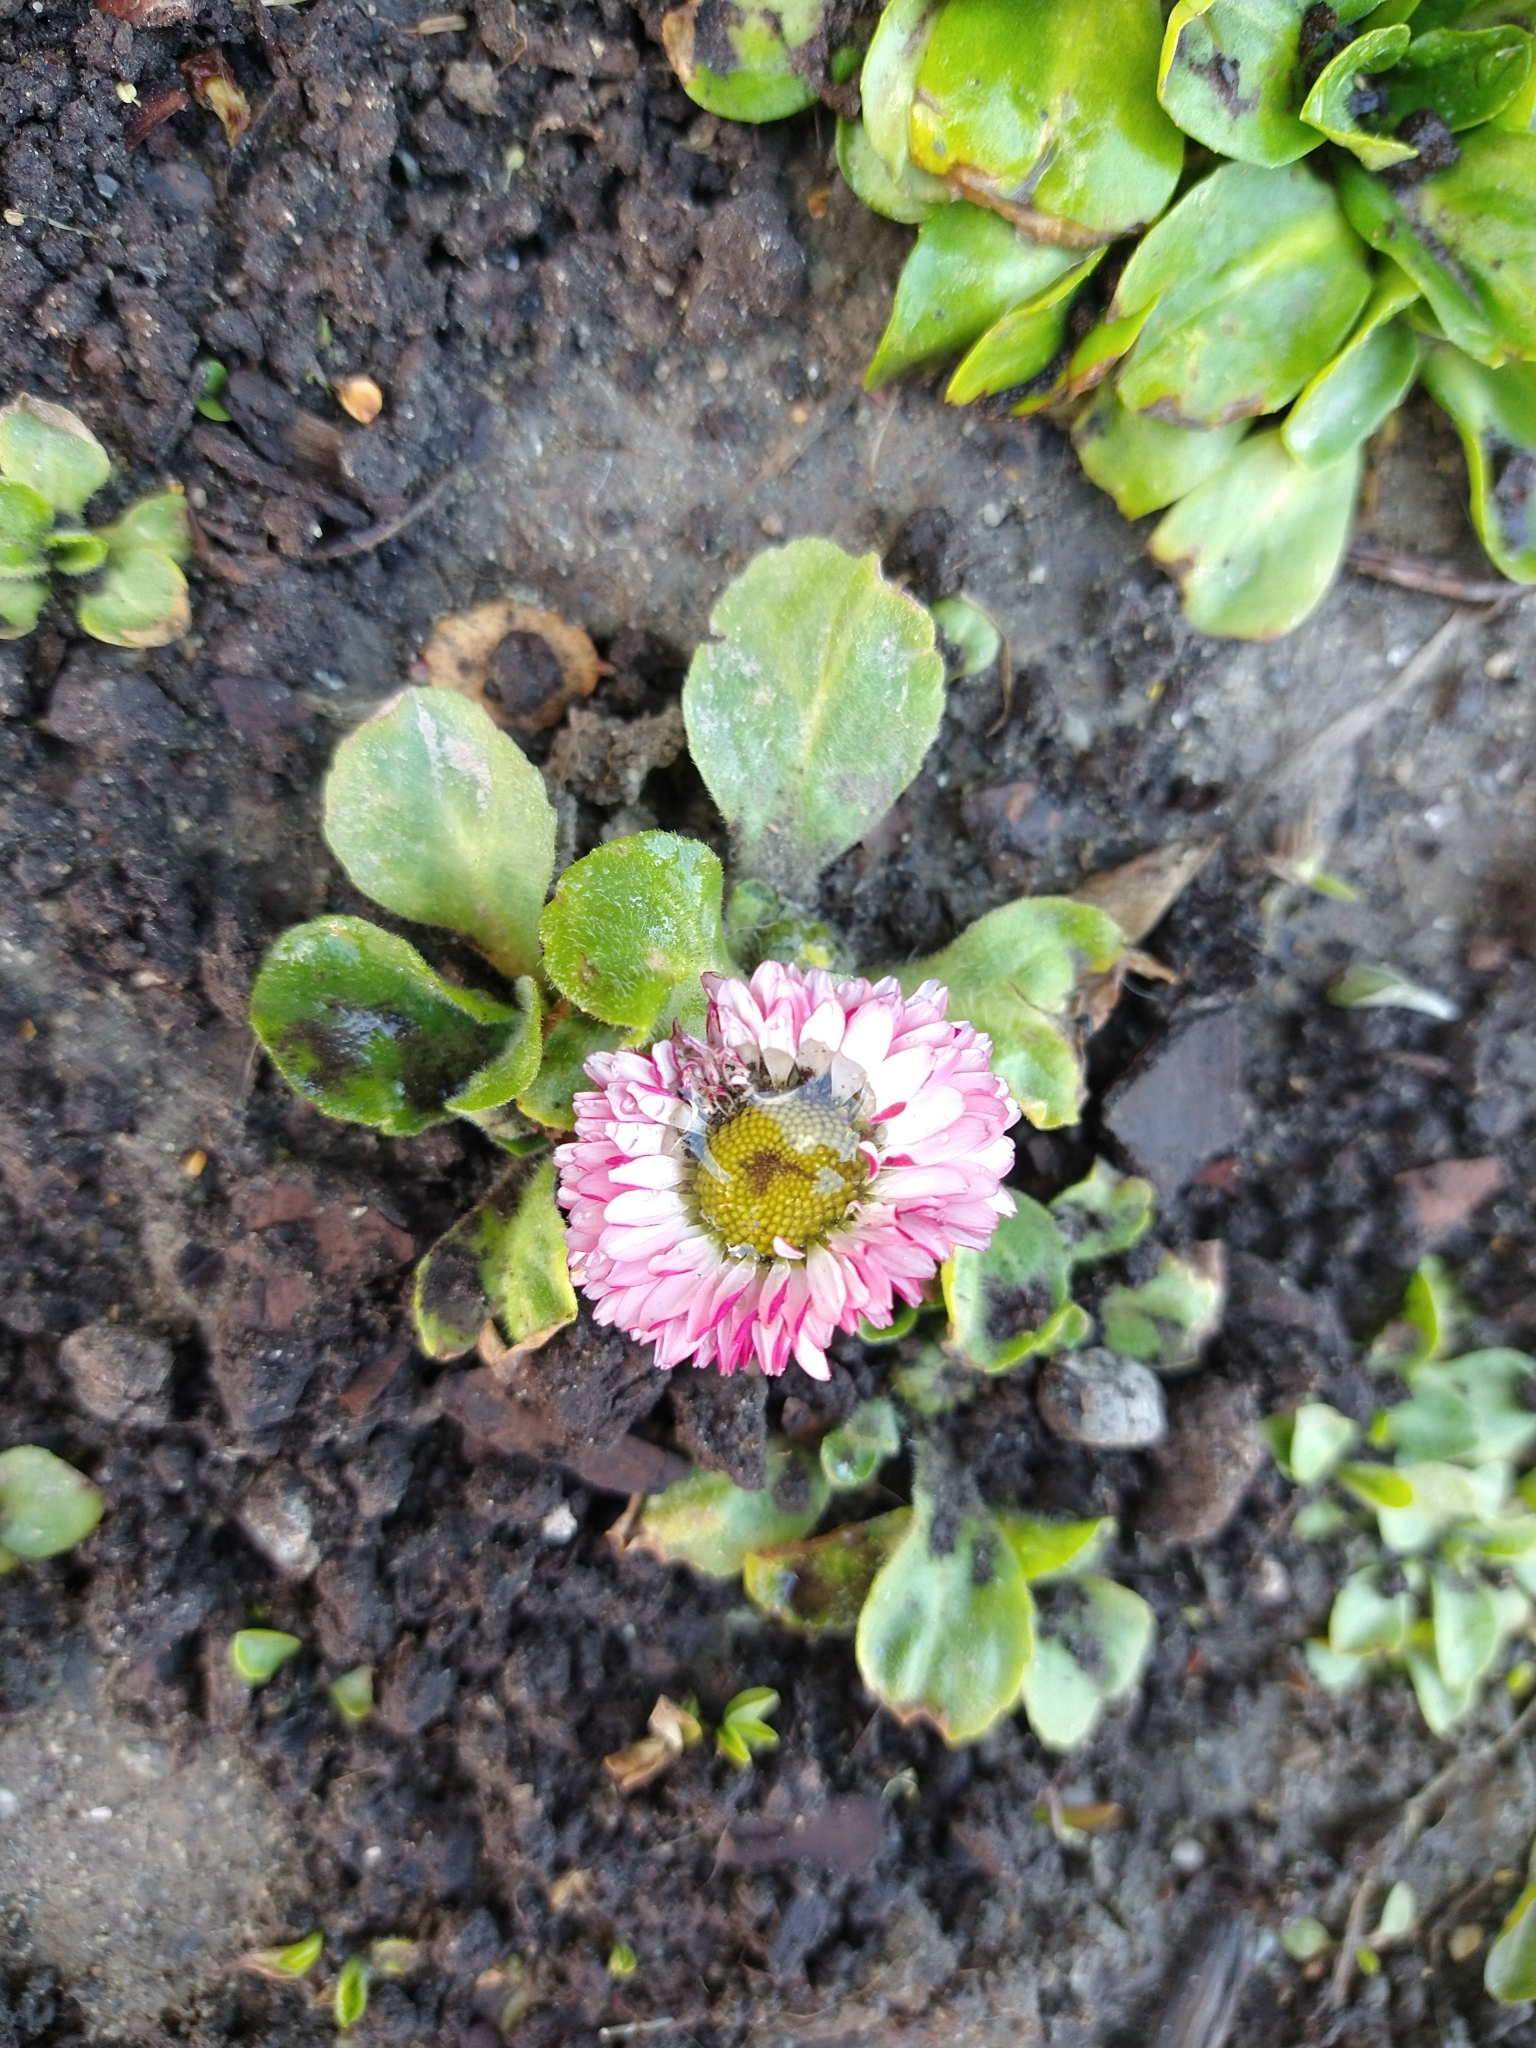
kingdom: Plantae
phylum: Tracheophyta
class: Magnoliopsida
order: Asterales
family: Asteraceae
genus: Bellis
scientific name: Bellis perennis
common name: Lawndaisy
